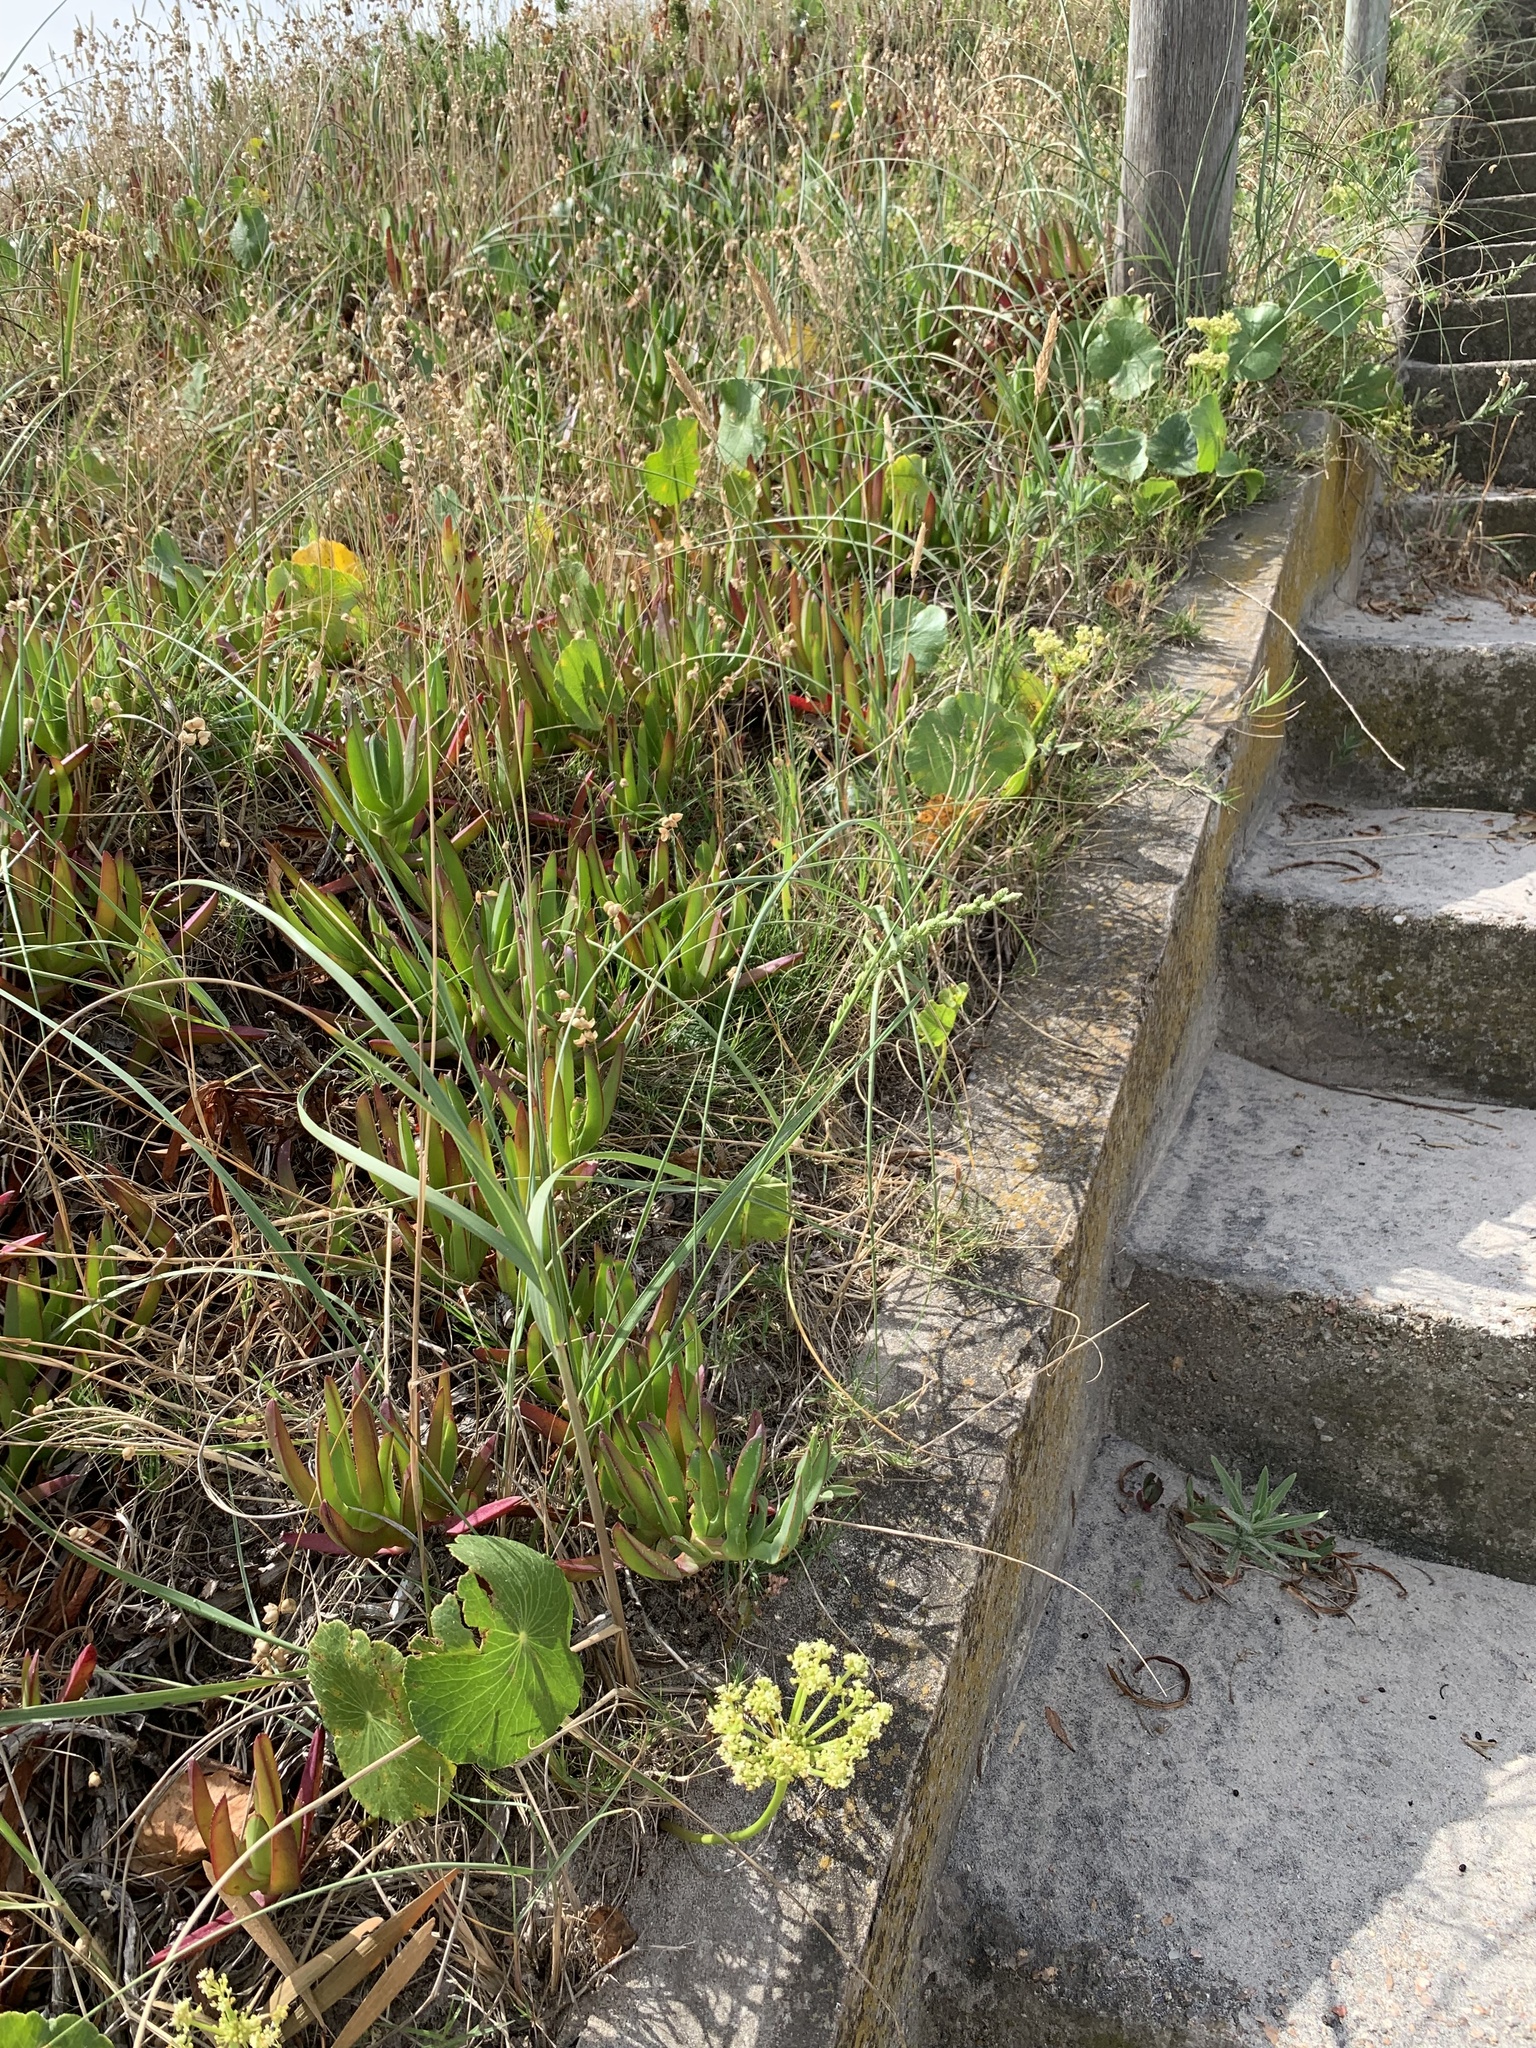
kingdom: Plantae
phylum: Tracheophyta
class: Magnoliopsida
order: Caryophyllales
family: Aizoaceae
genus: Carpobrotus
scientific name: Carpobrotus edulis
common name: Hottentot-fig
